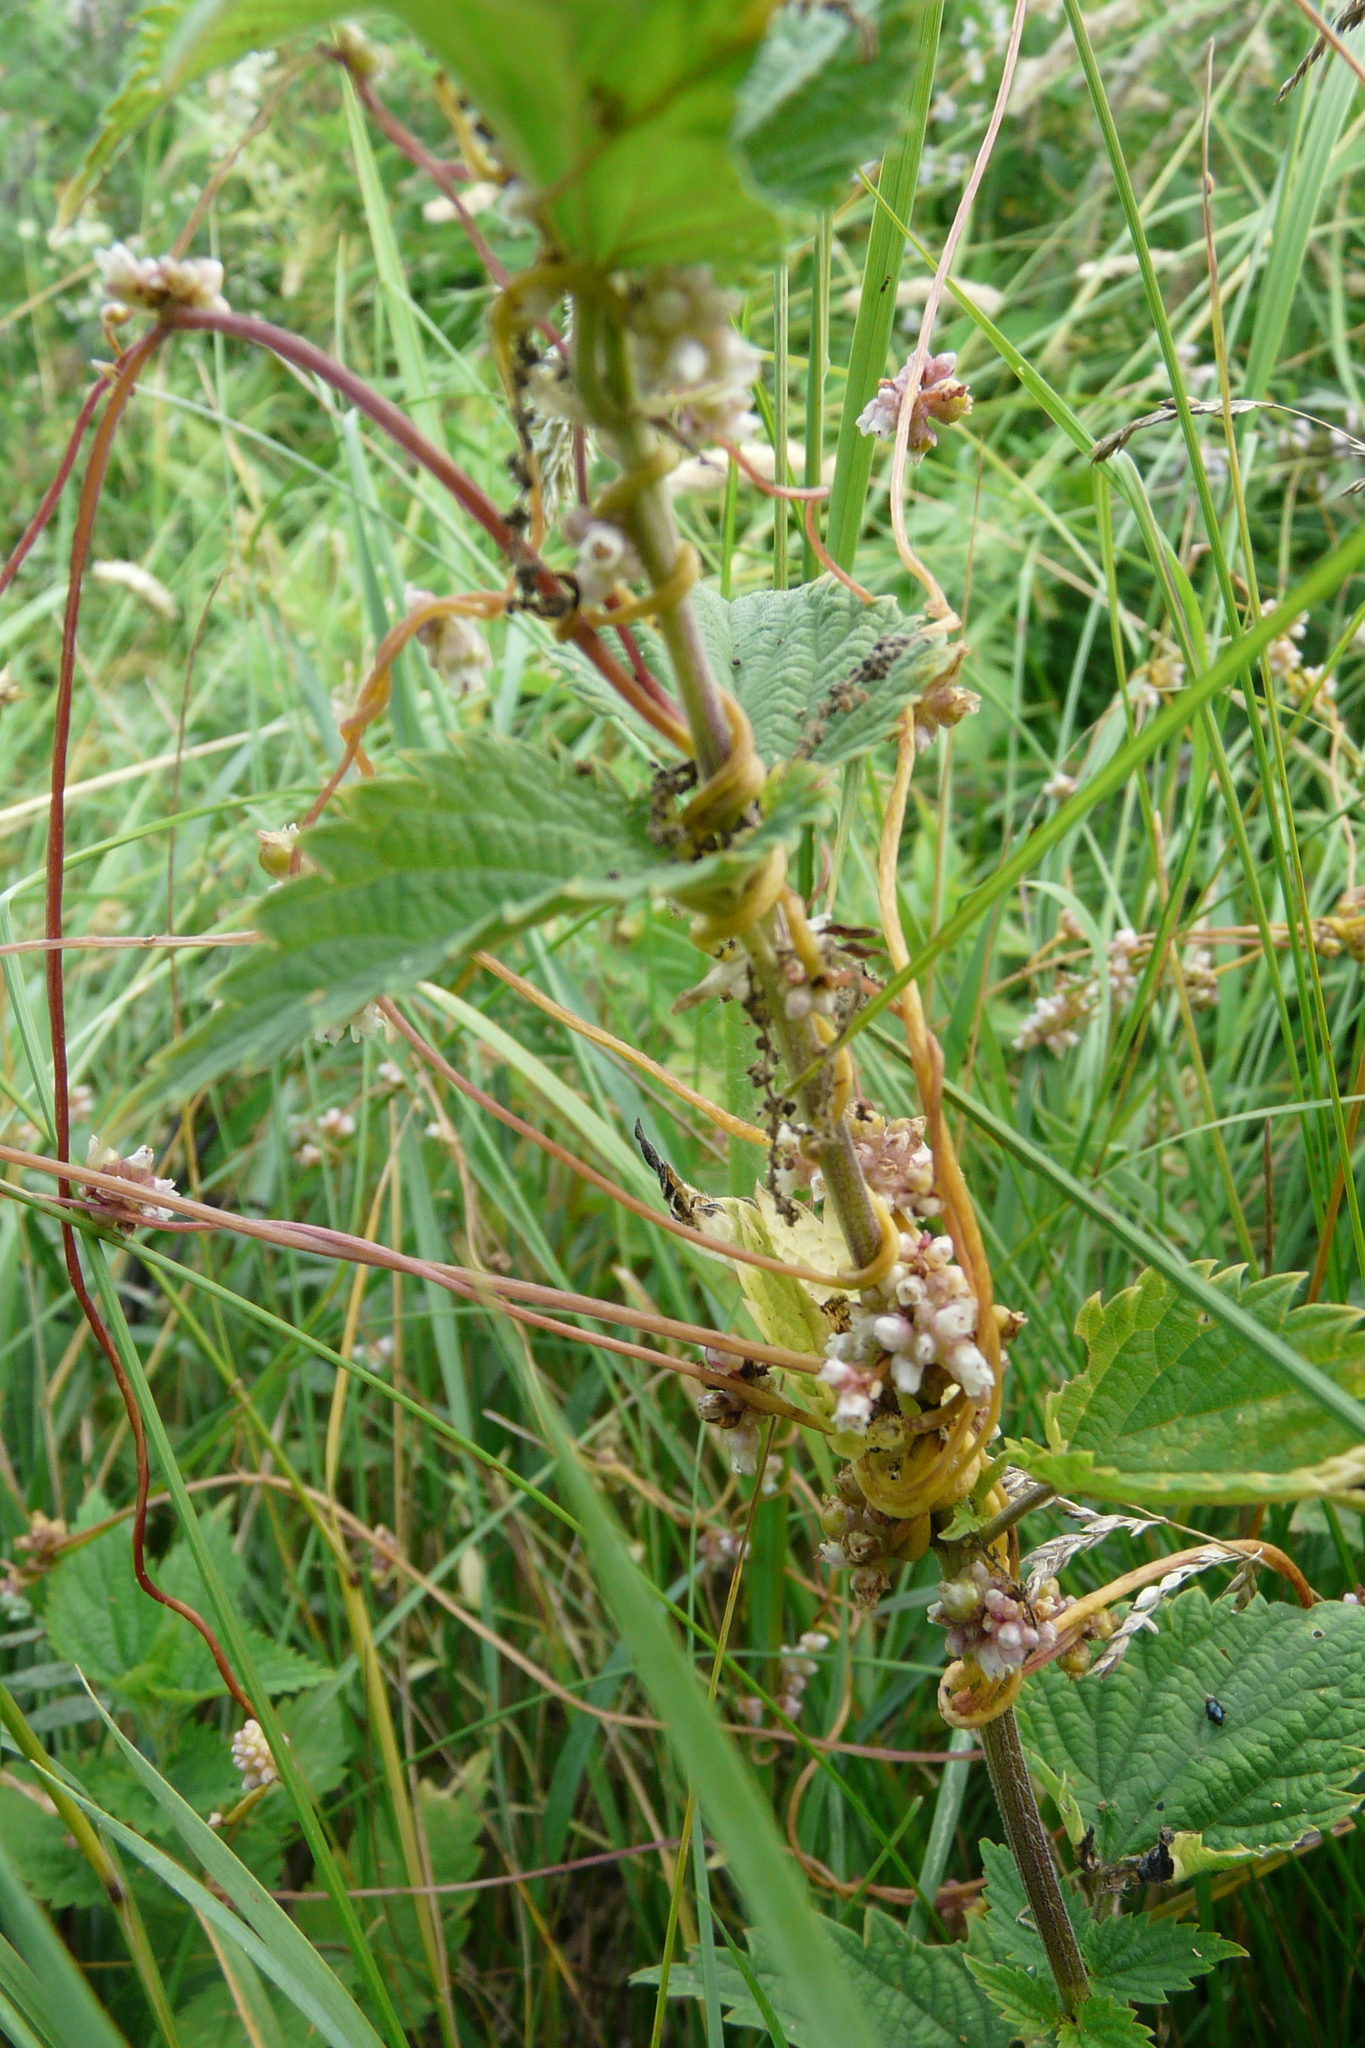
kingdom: Plantae
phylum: Tracheophyta
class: Magnoliopsida
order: Solanales
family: Convolvulaceae
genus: Cuscuta
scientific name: Cuscuta europaea
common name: Greater dodder
